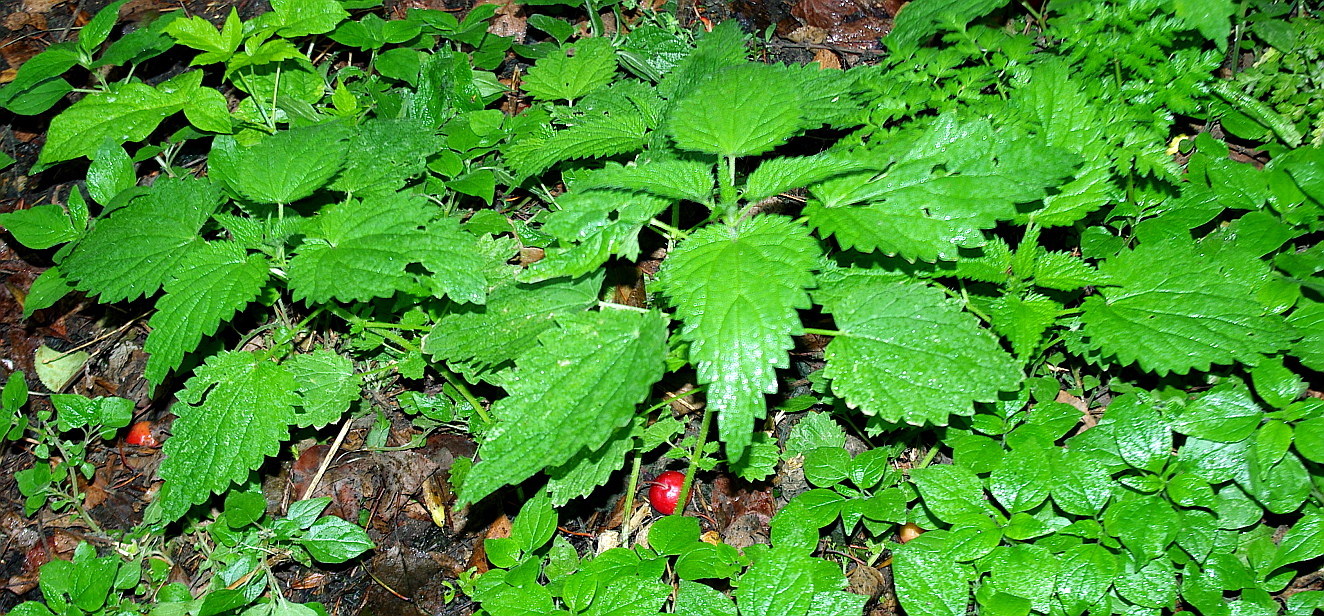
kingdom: Plantae
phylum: Tracheophyta
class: Magnoliopsida
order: Rosales
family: Urticaceae
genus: Urtica
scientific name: Urtica dioica
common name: Common nettle
